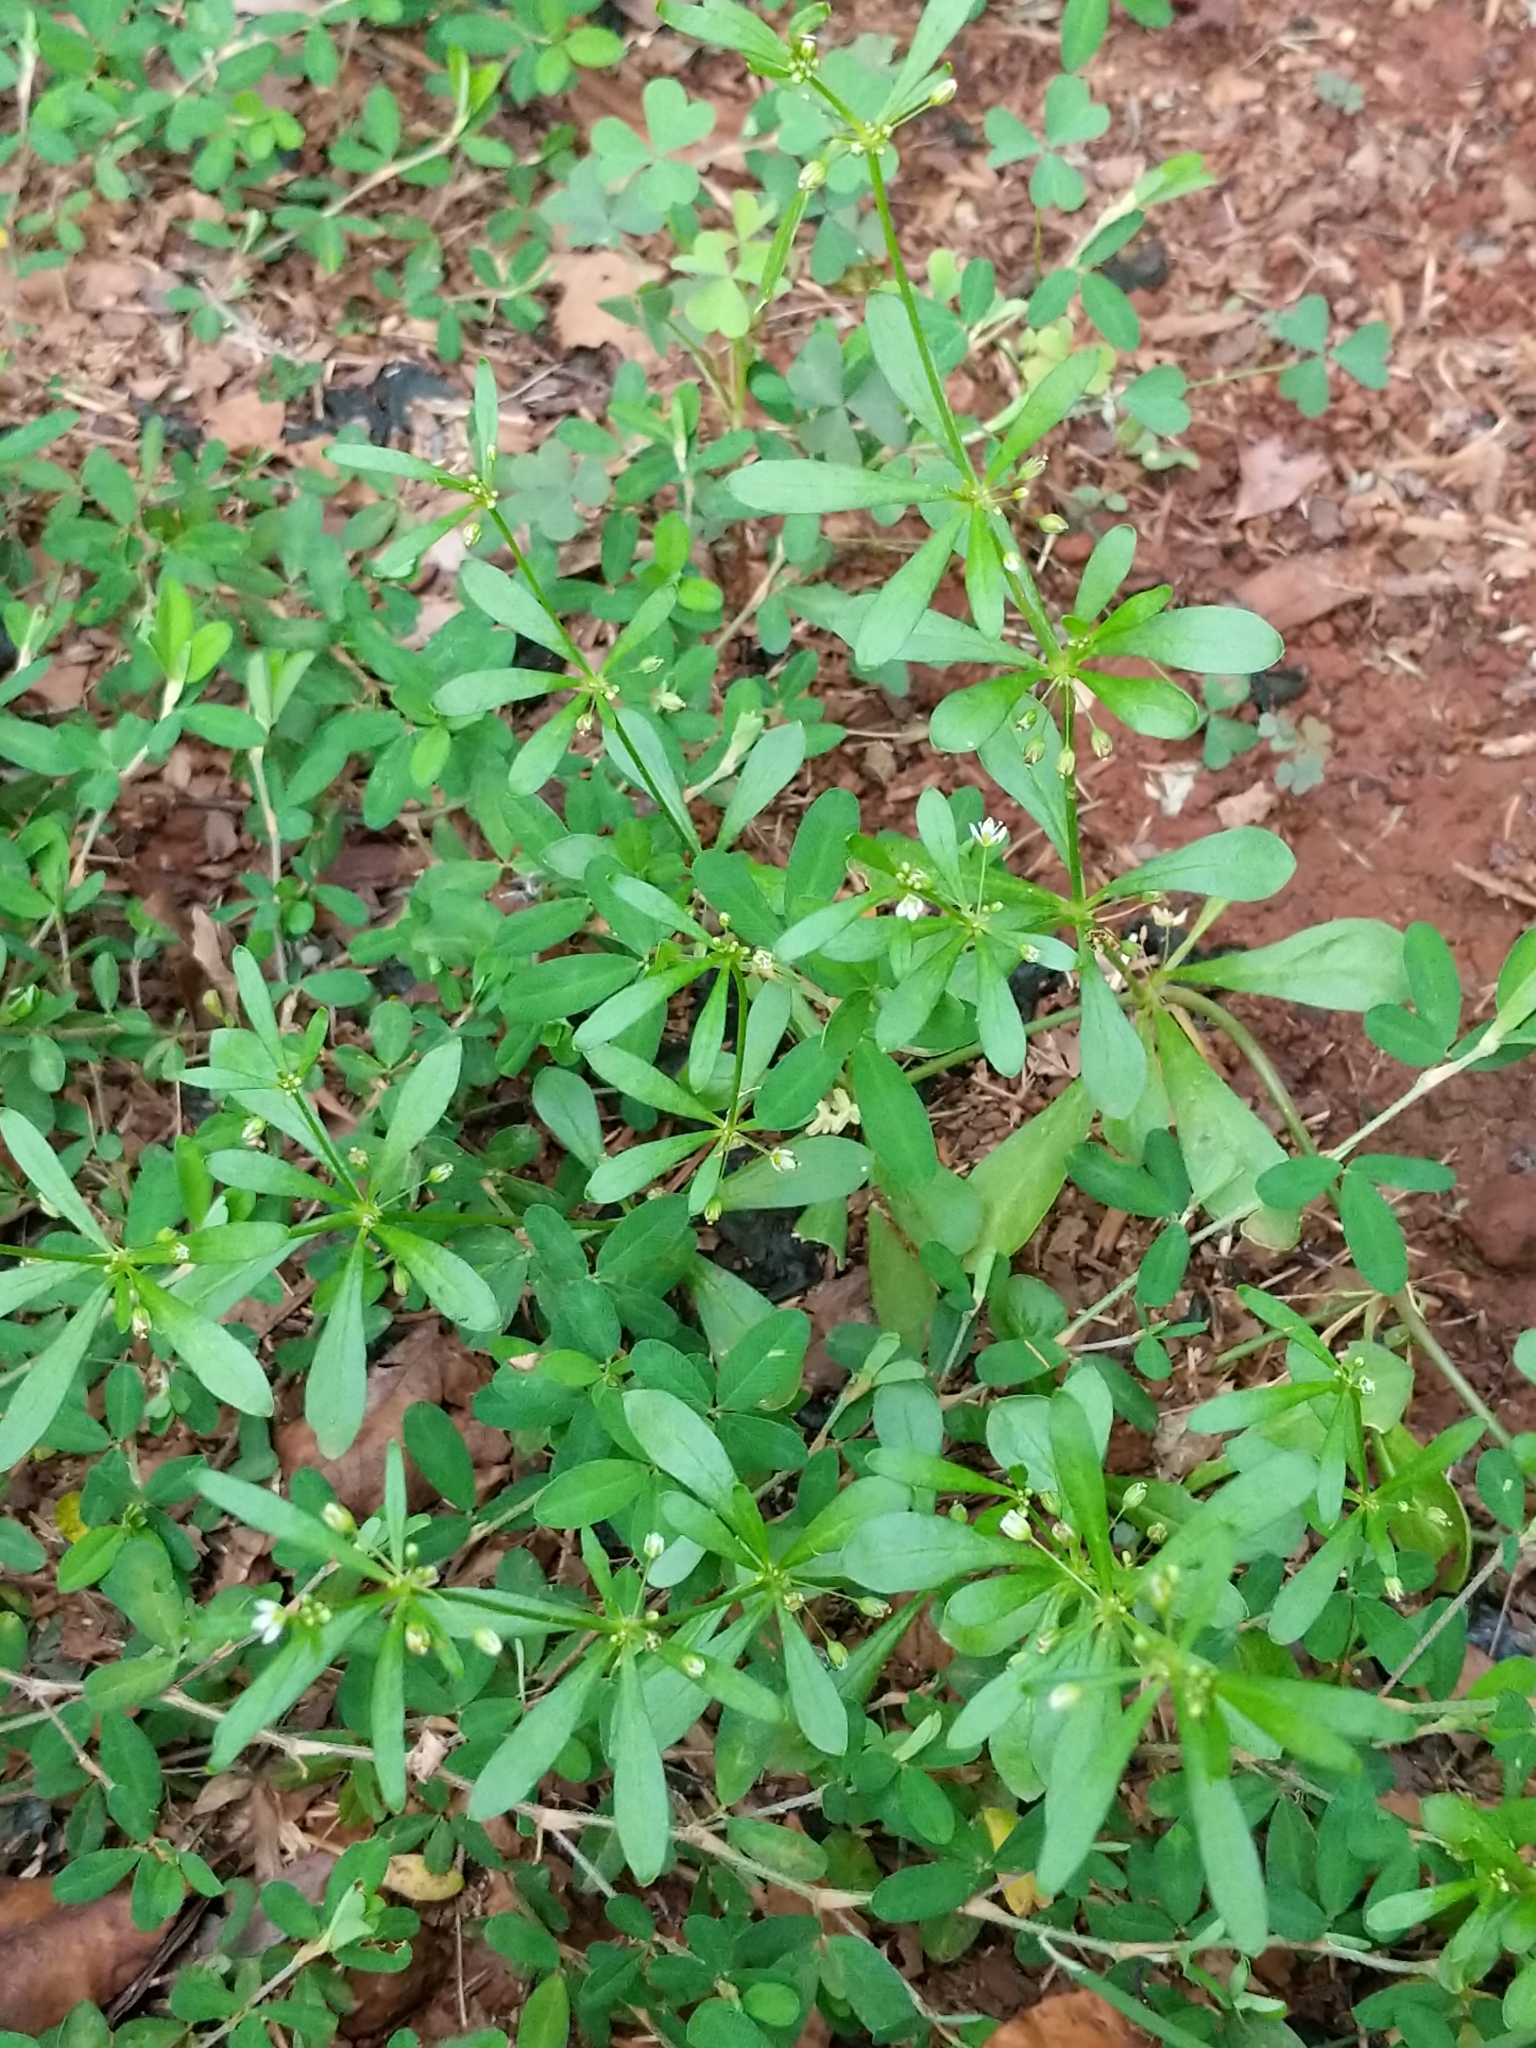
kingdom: Plantae
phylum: Tracheophyta
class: Magnoliopsida
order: Caryophyllales
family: Molluginaceae
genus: Mollugo
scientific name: Mollugo verticillata
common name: Green carpetweed
